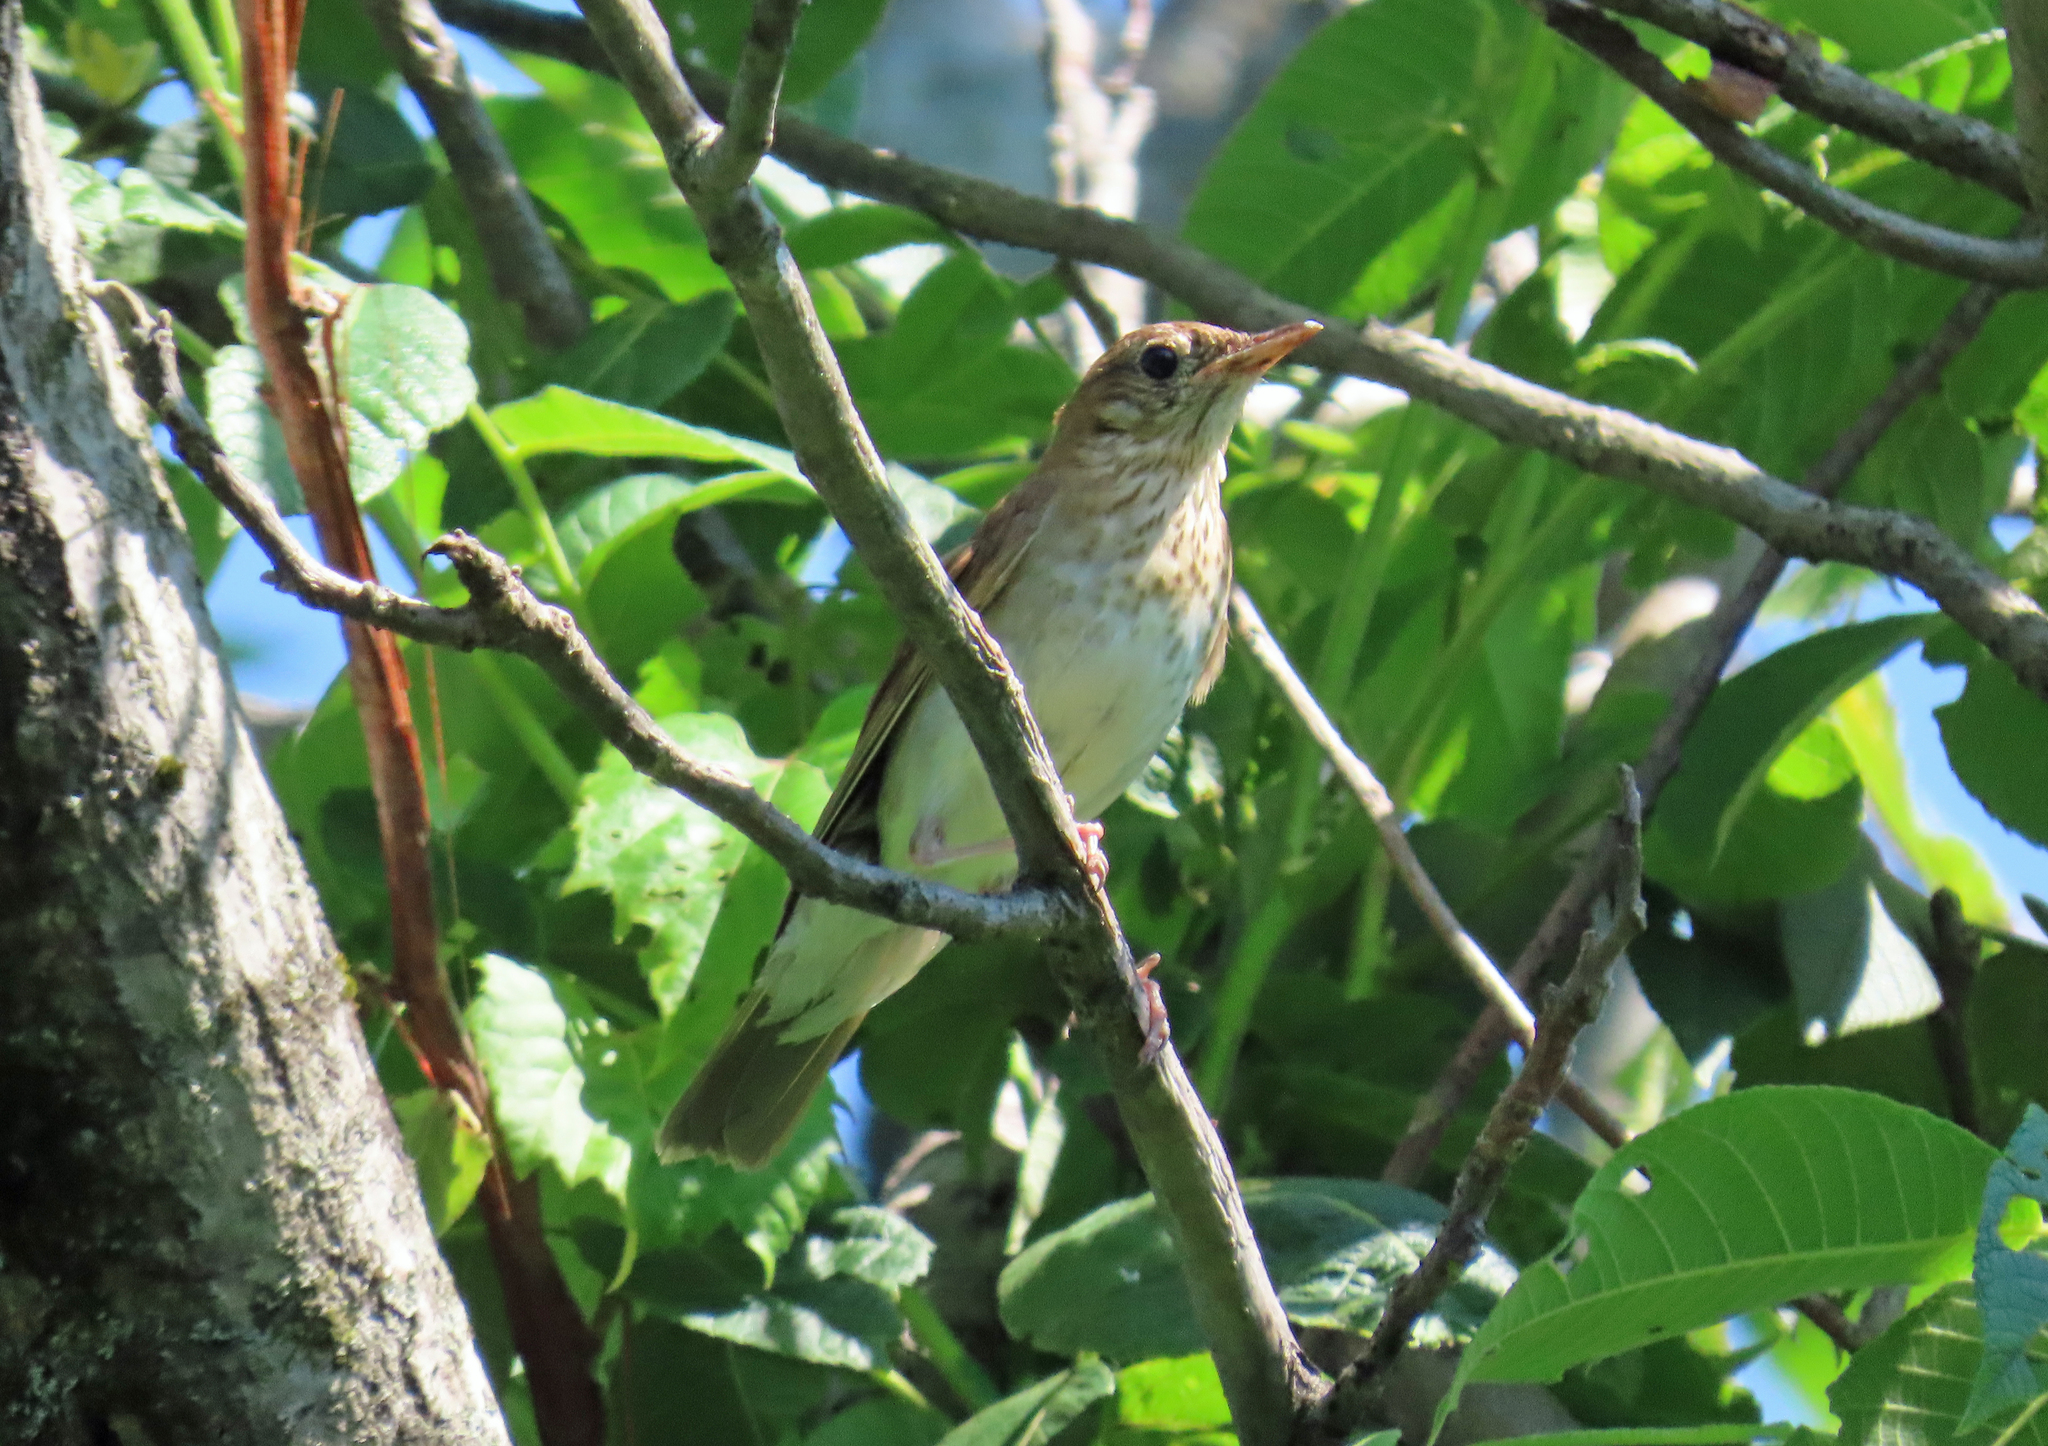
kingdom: Animalia
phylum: Chordata
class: Aves
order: Passeriformes
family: Turdidae
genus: Catharus
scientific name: Catharus fuscescens
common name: Veery
